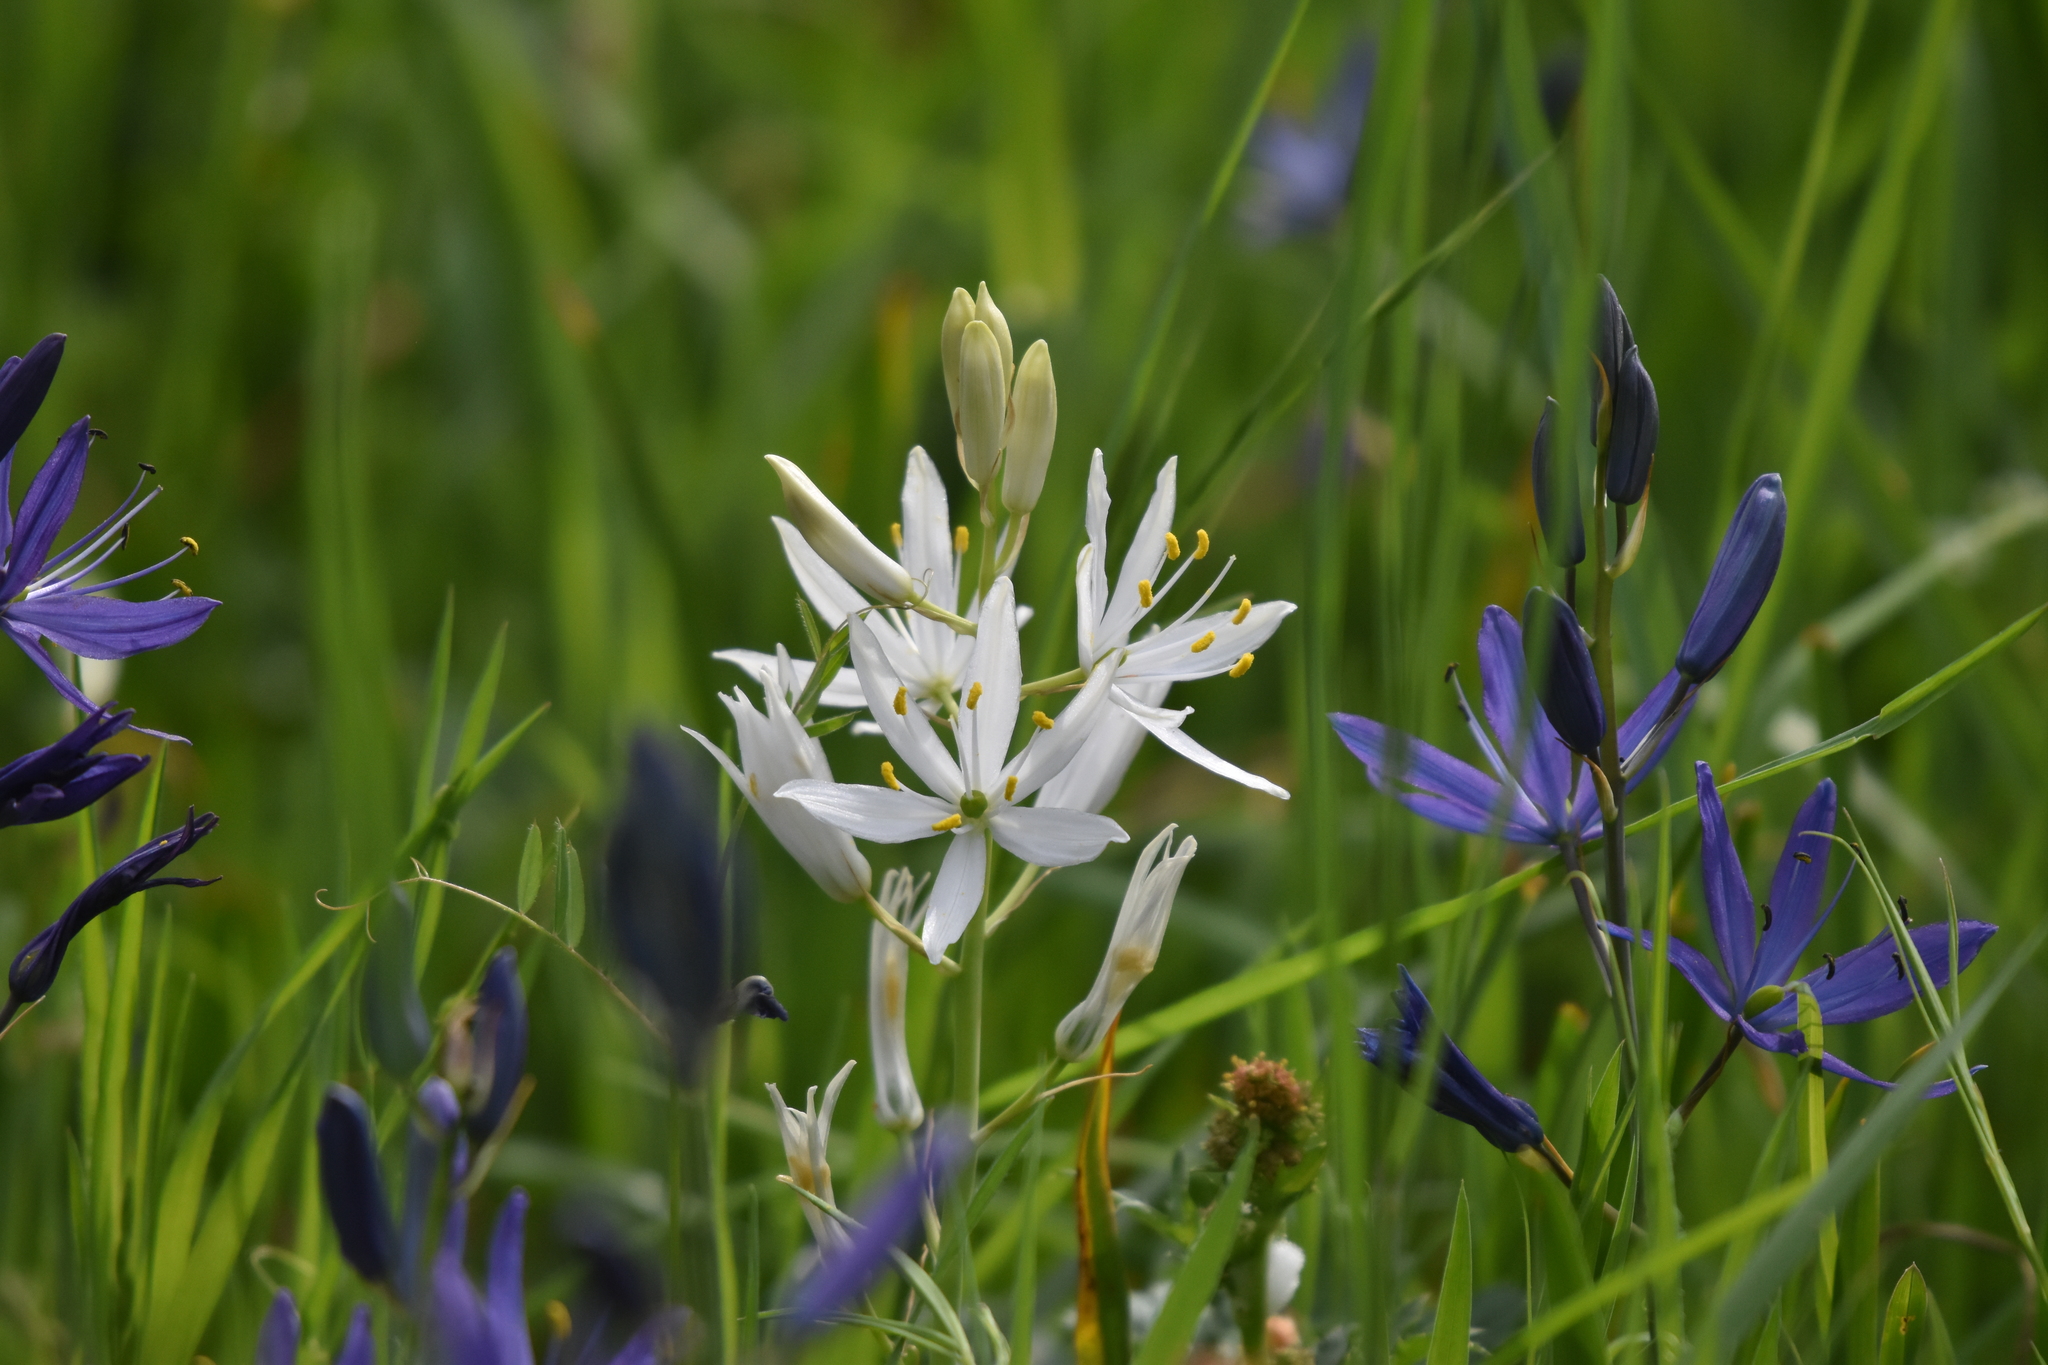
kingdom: Plantae
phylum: Tracheophyta
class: Liliopsida
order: Asparagales
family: Asparagaceae
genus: Camassia
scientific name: Camassia leichtlinii
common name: Leichtlin's camas
